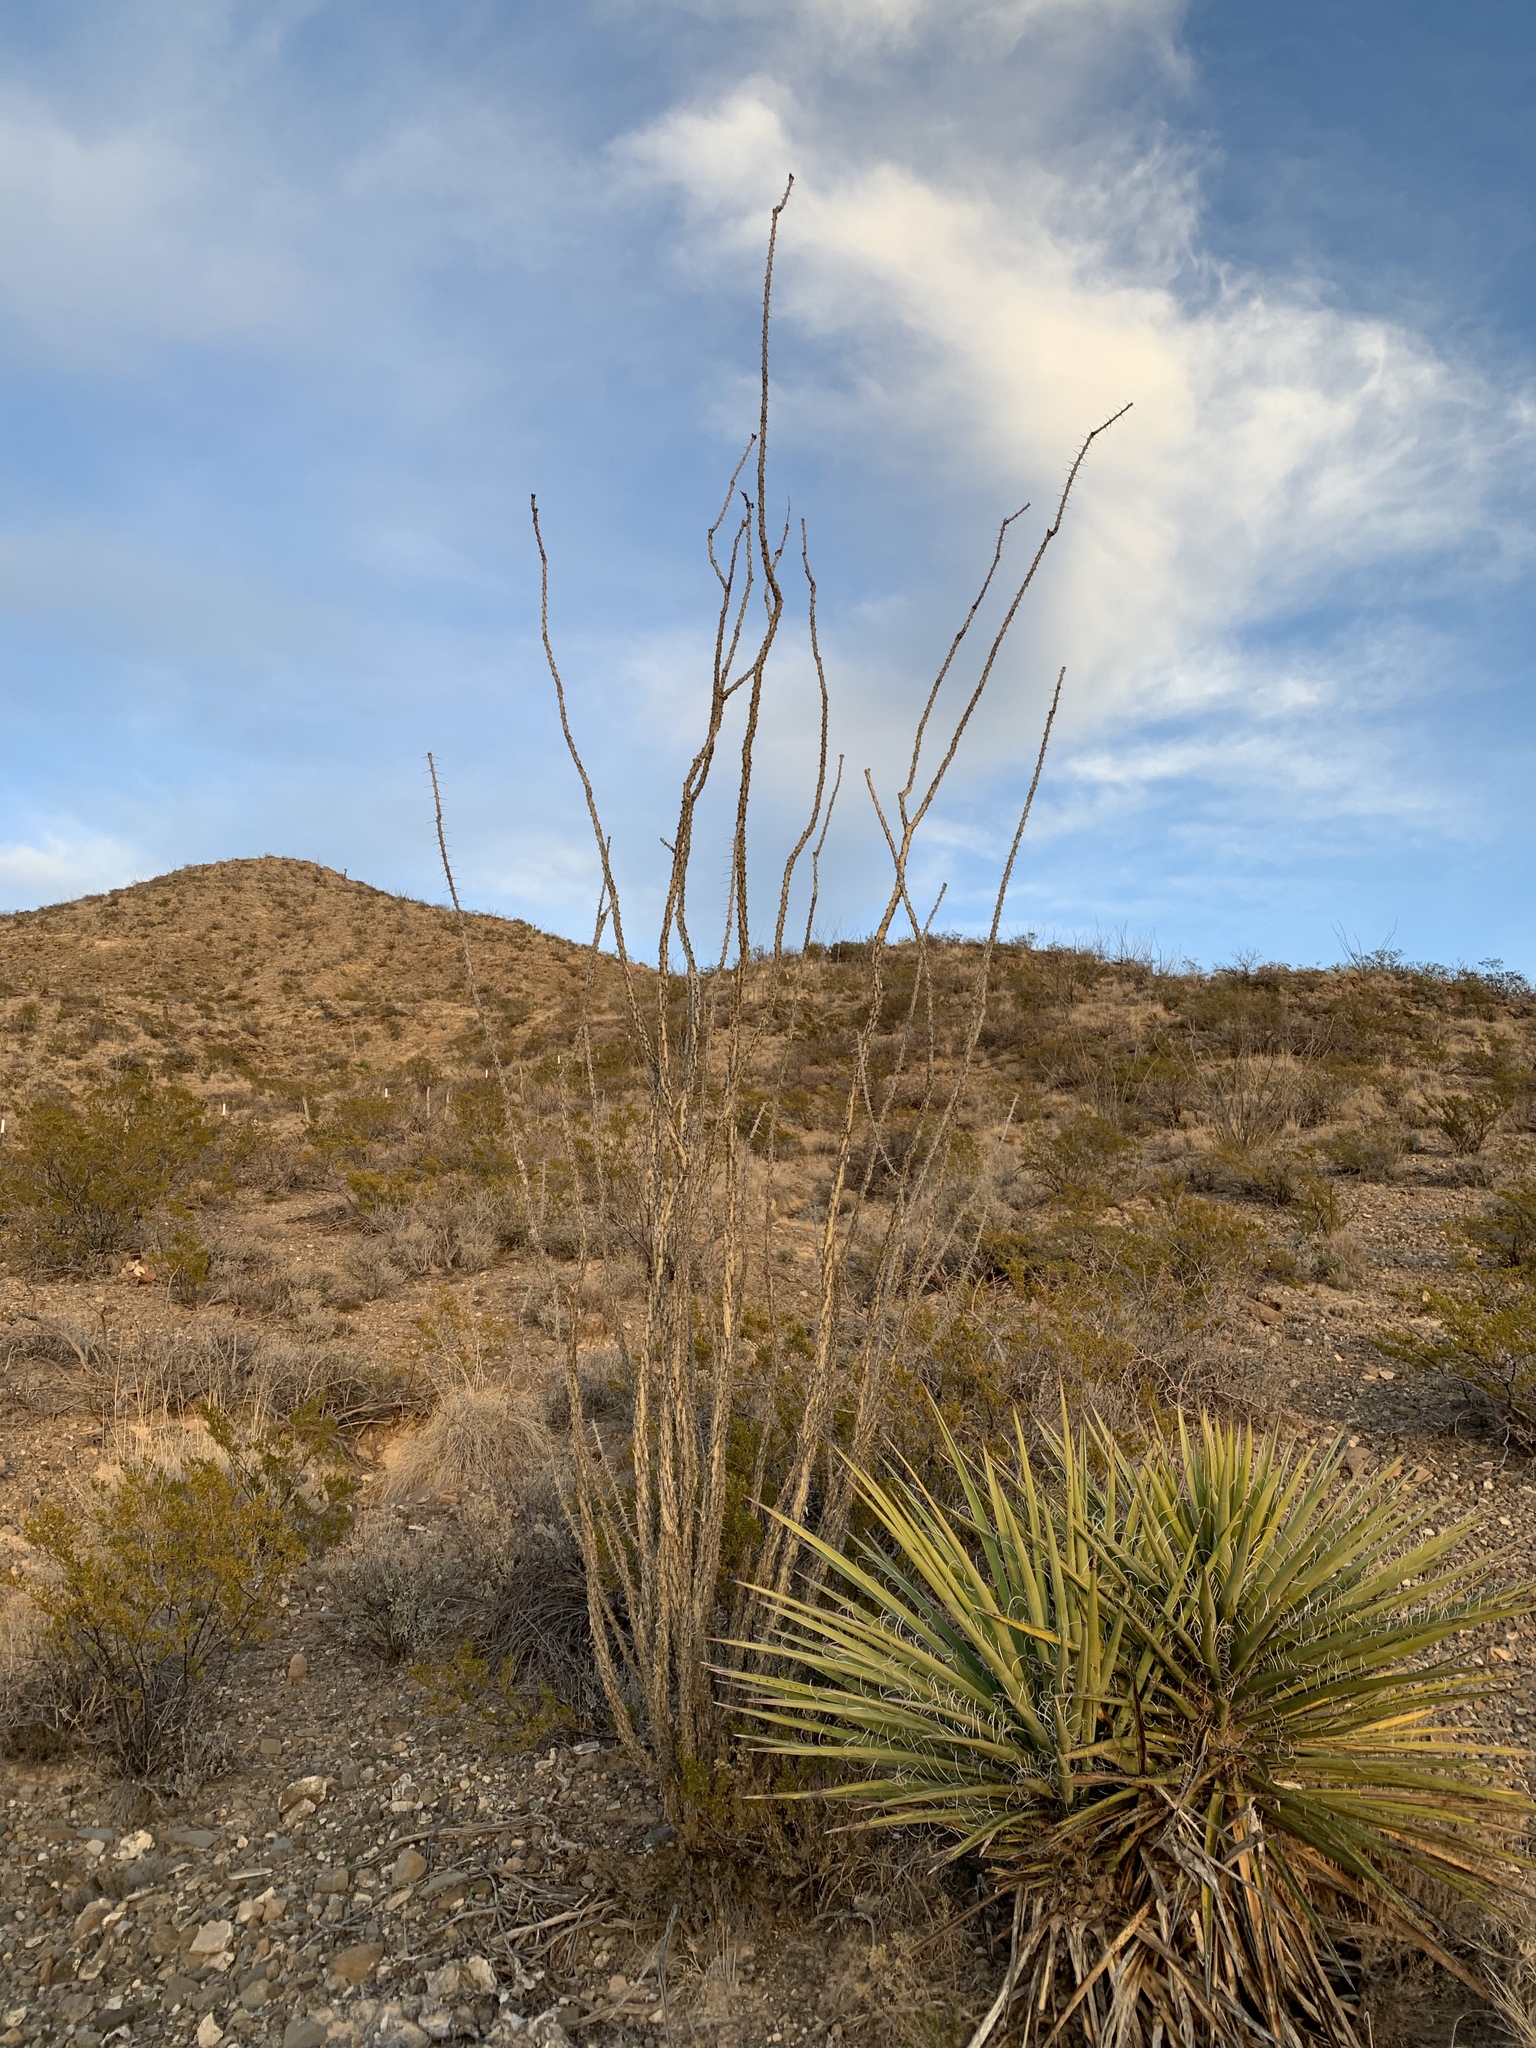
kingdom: Plantae
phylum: Tracheophyta
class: Magnoliopsida
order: Ericales
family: Fouquieriaceae
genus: Fouquieria
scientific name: Fouquieria splendens
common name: Vine-cactus
